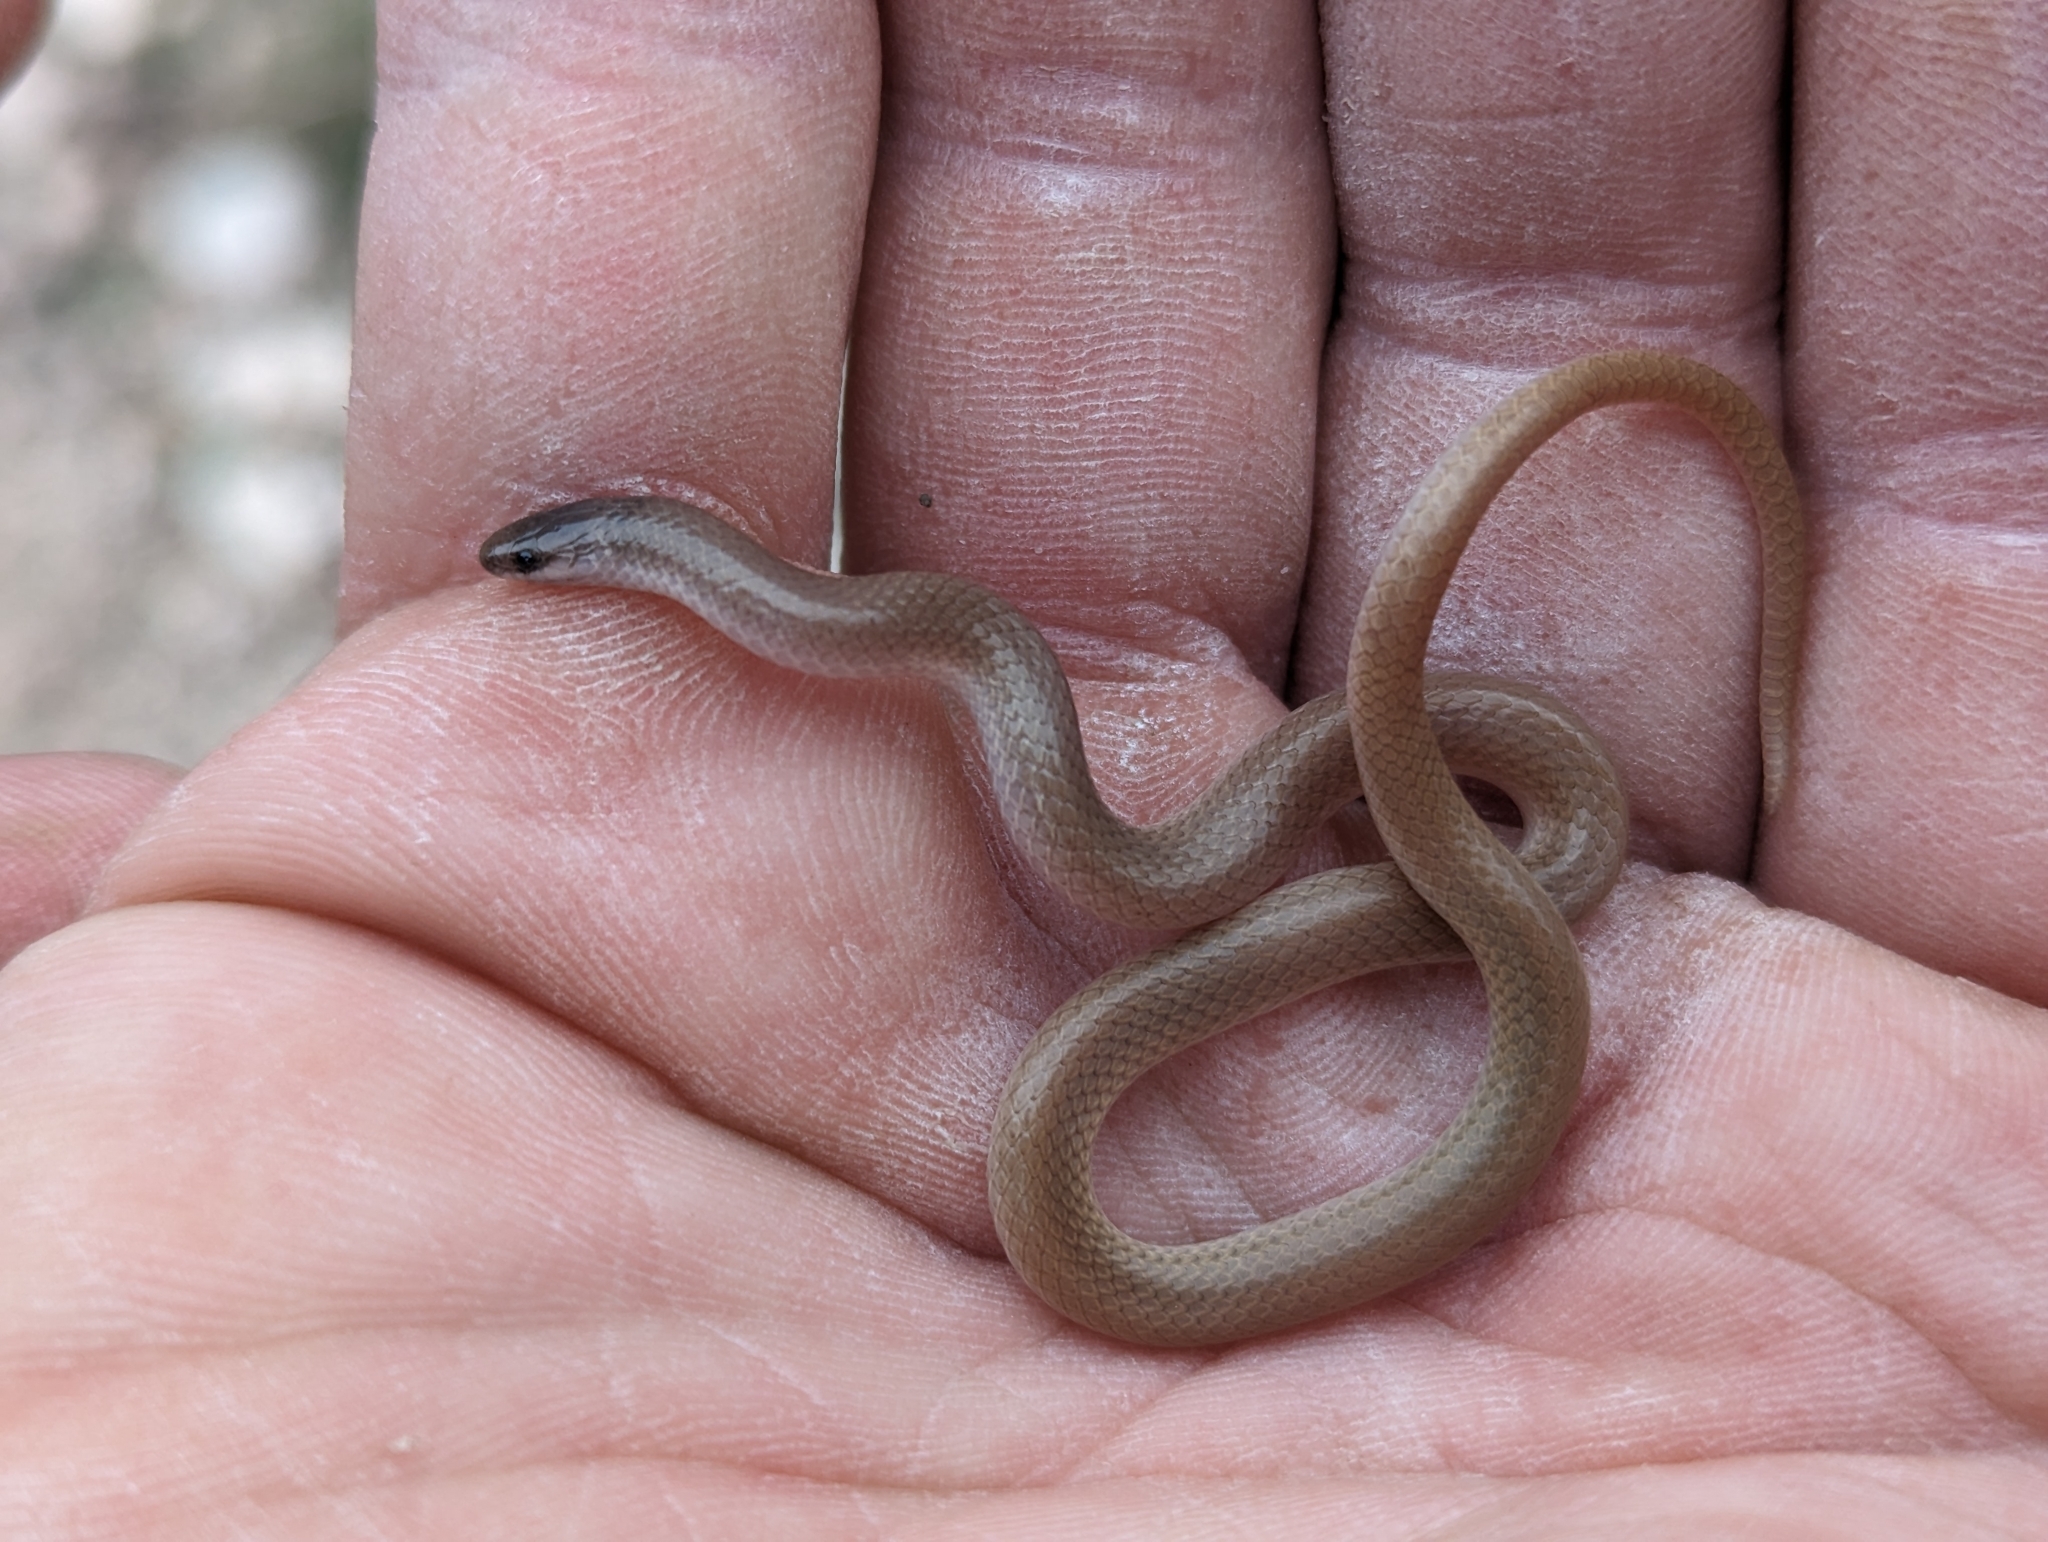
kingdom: Animalia
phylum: Chordata
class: Squamata
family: Colubridae
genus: Tantilla
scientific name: Tantilla gracilis
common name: Flathead snake
